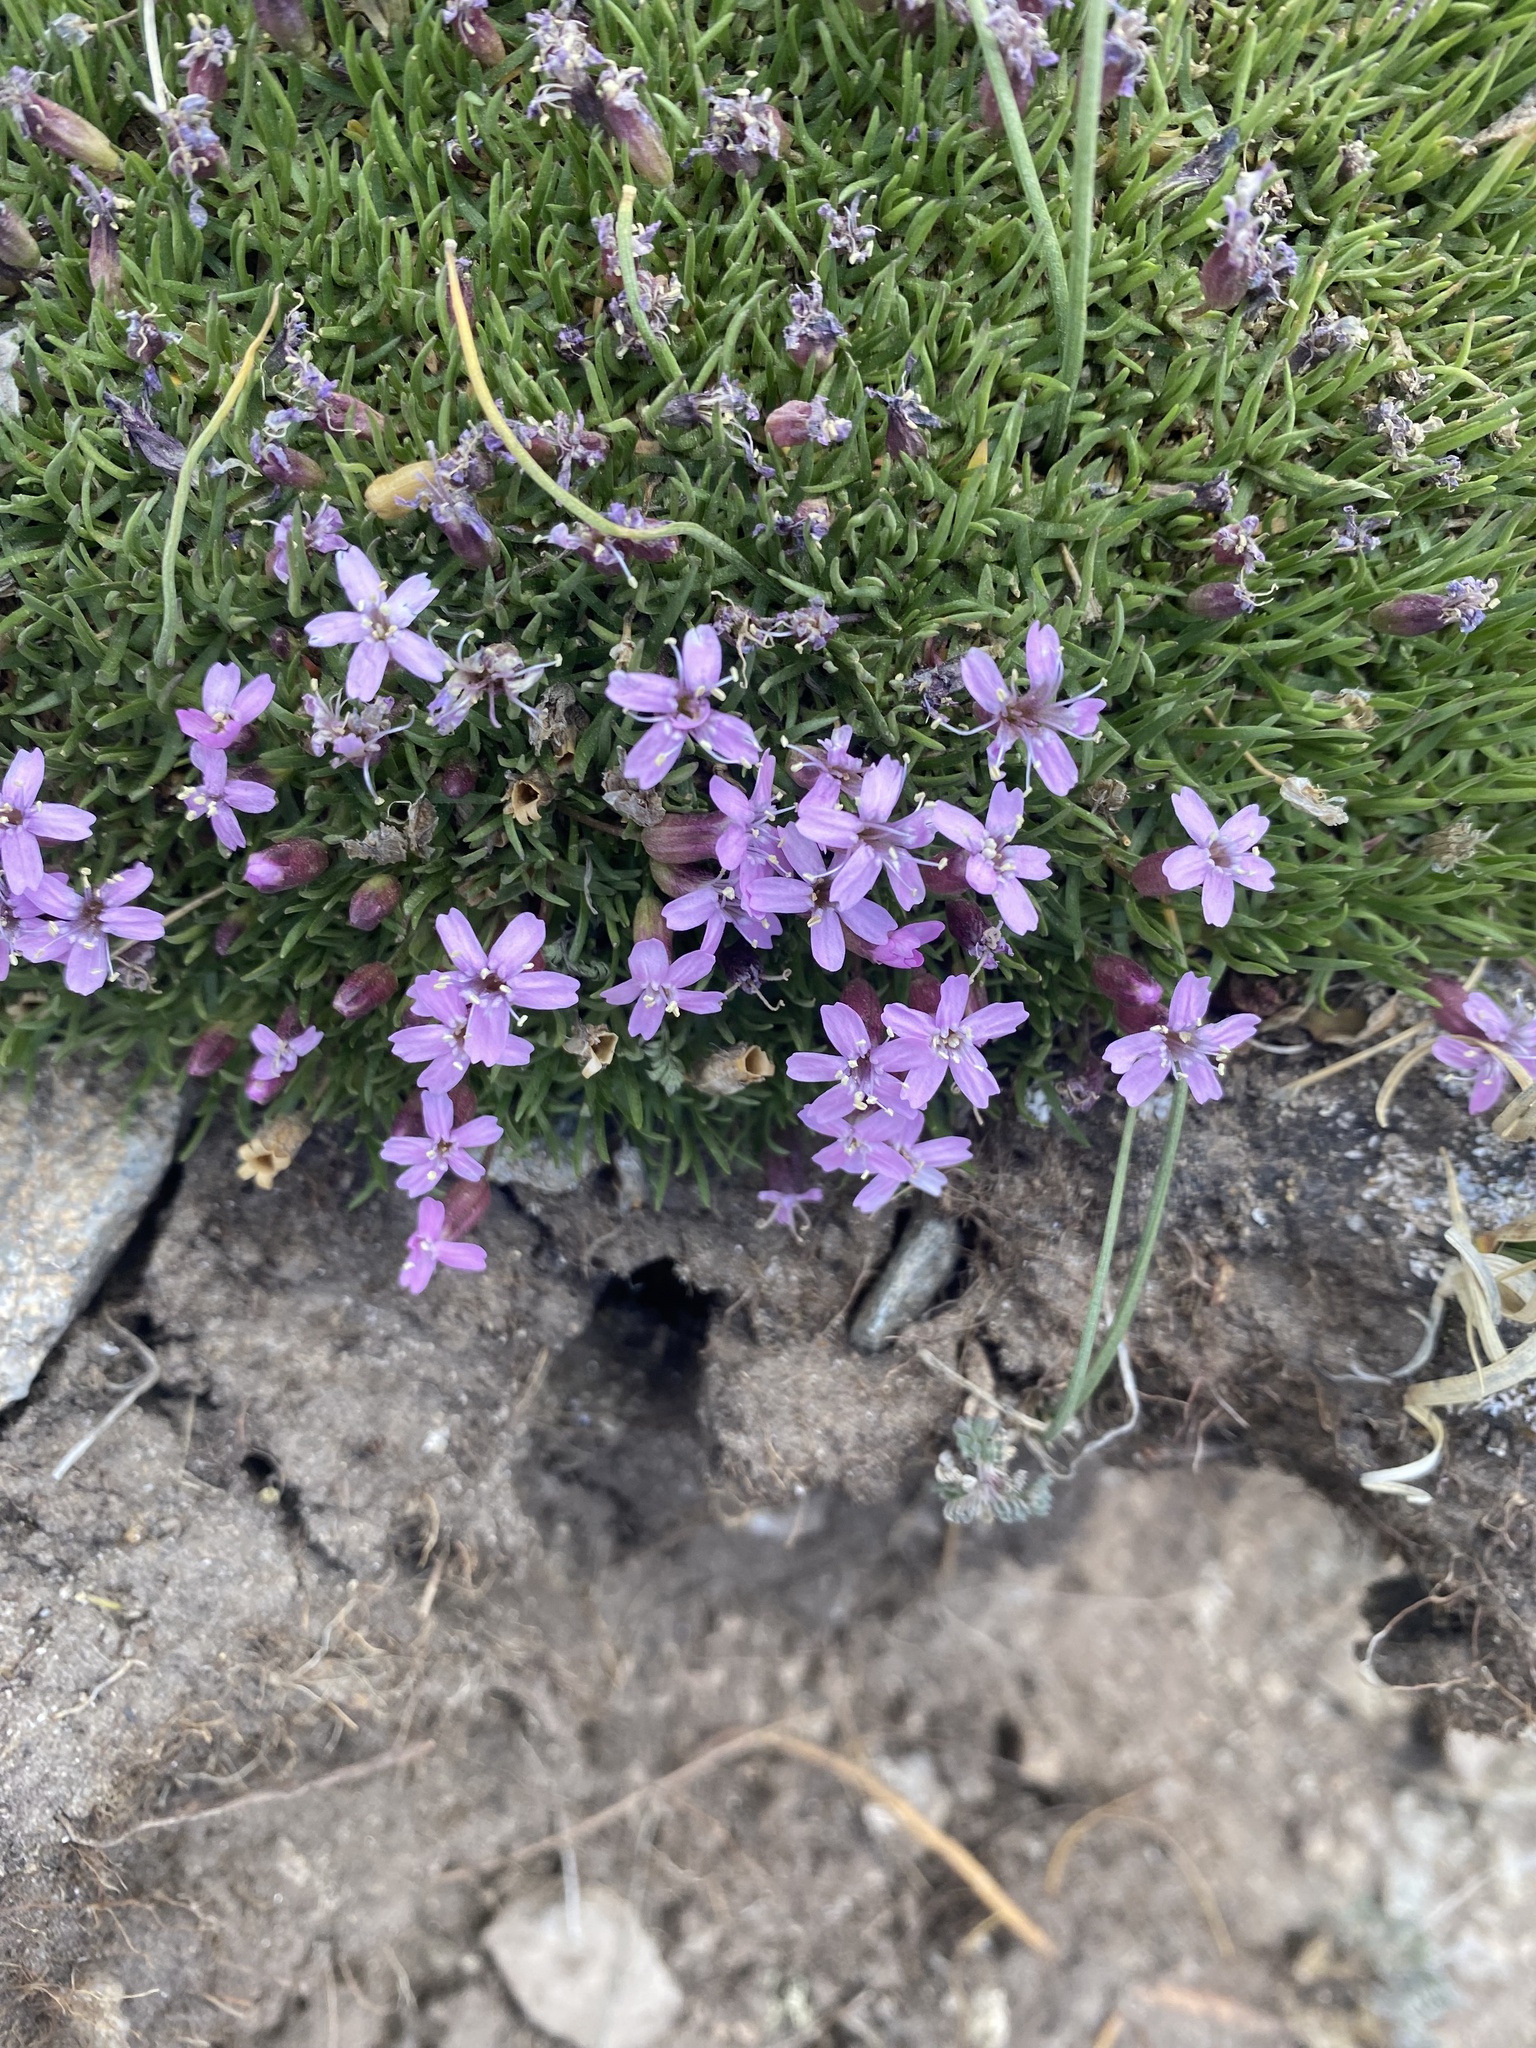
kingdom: Plantae
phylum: Tracheophyta
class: Magnoliopsida
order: Caryophyllales
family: Caryophyllaceae
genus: Silene
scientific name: Silene acaulis
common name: Moss campion
